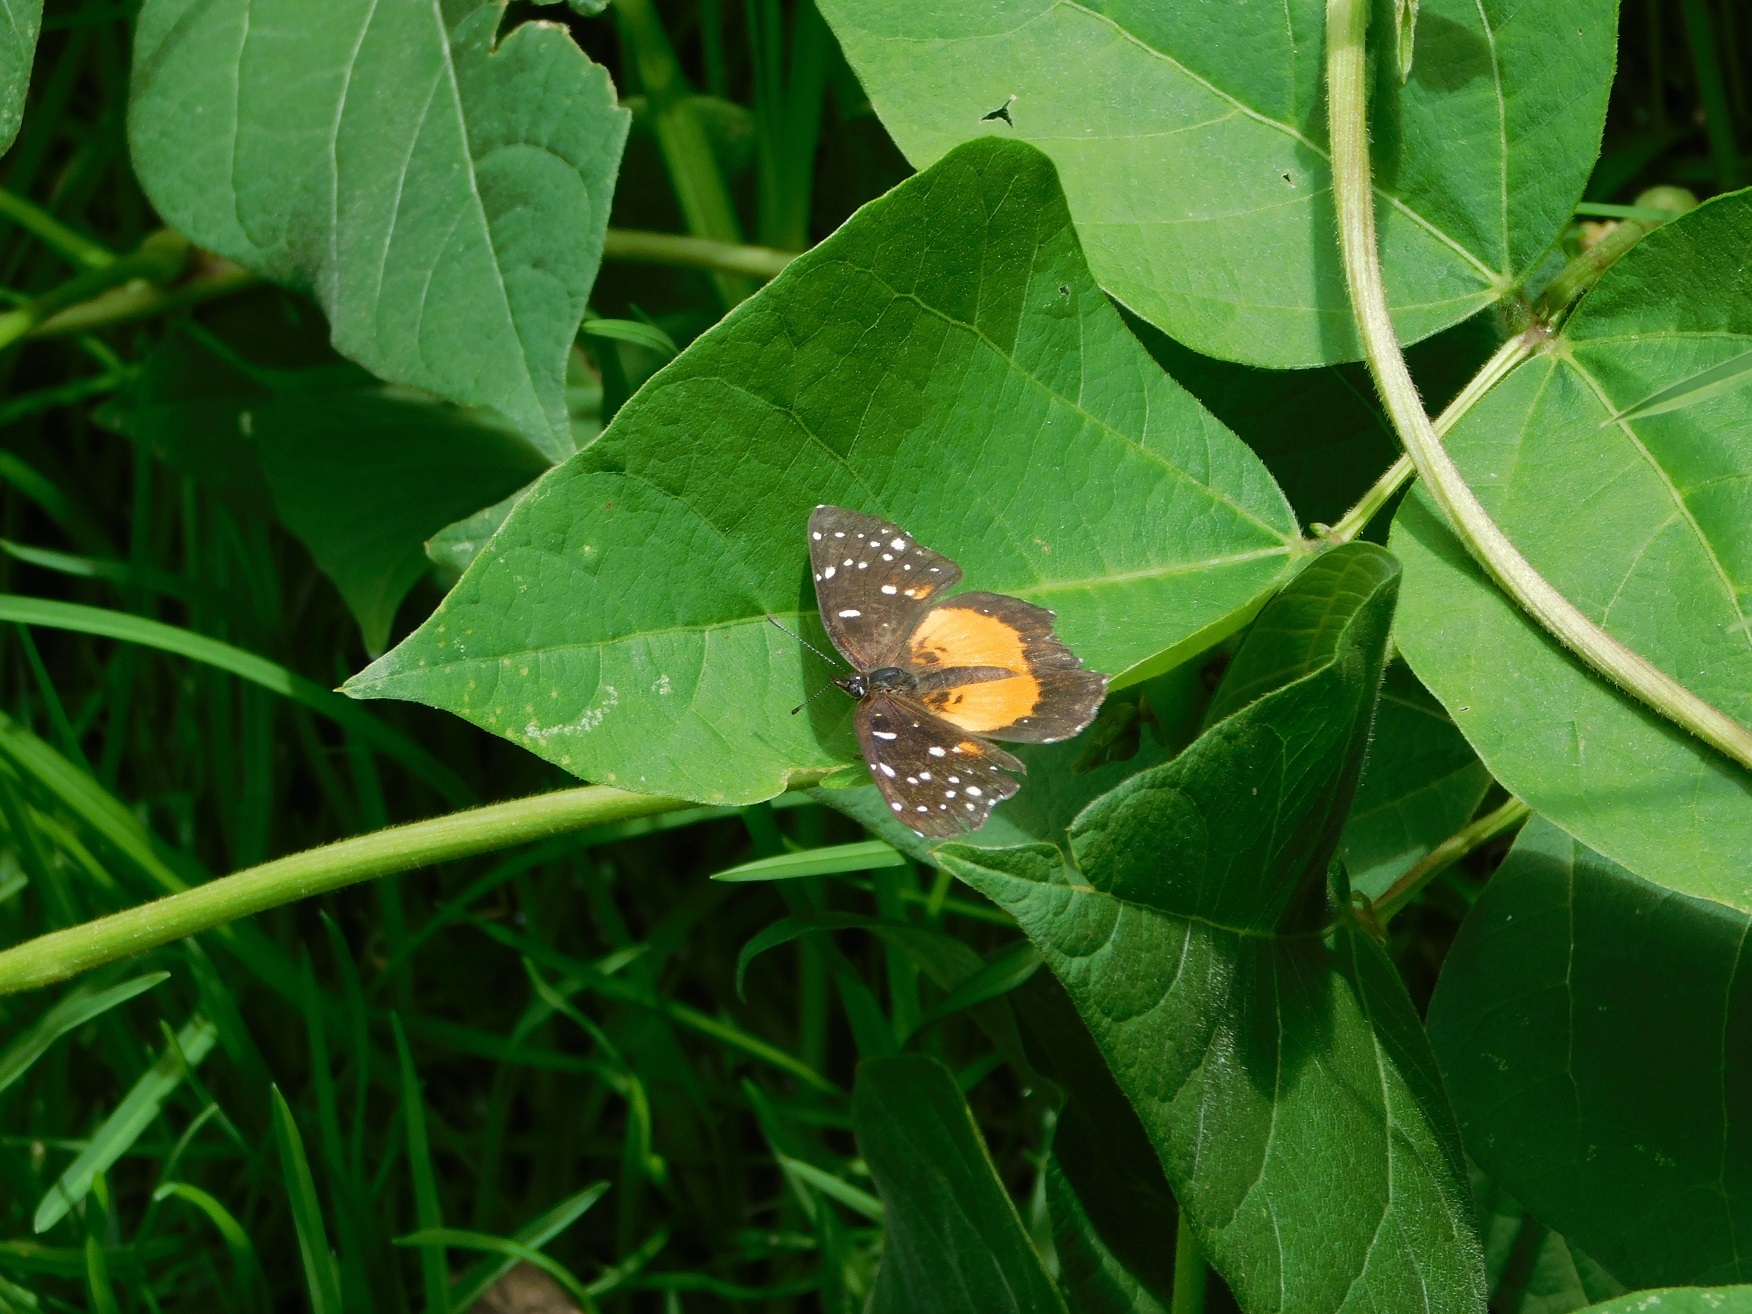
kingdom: Animalia
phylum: Arthropoda
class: Insecta
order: Lepidoptera
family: Nymphalidae
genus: Chlosyne
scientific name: Chlosyne lacinia
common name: Bordered patch
